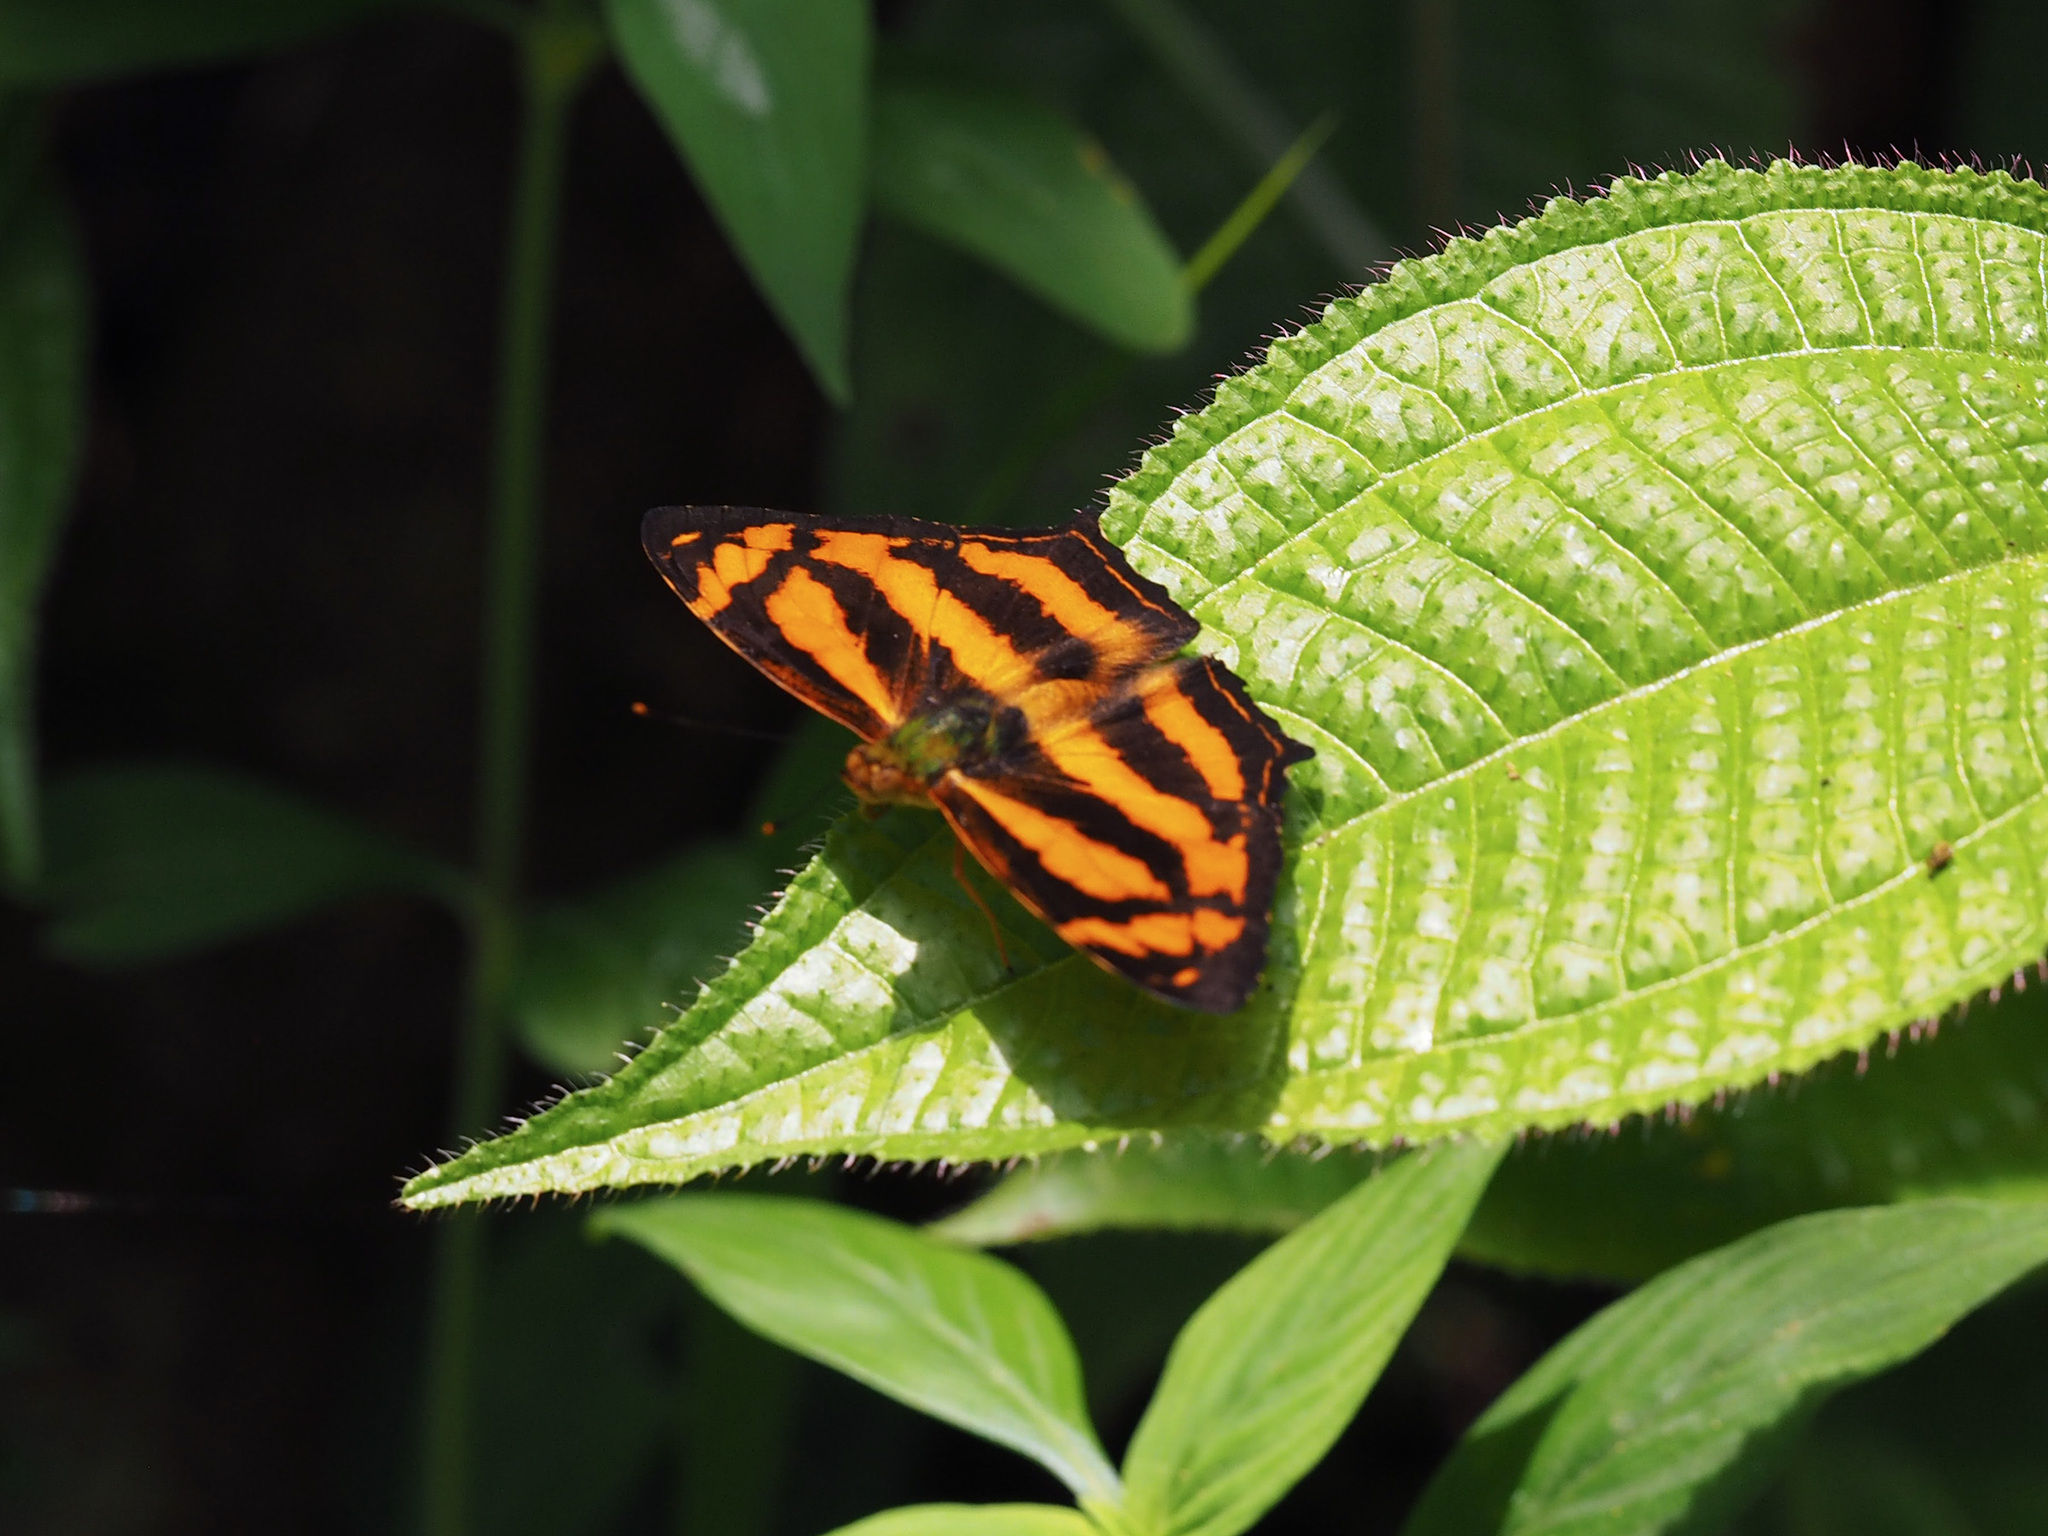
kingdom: Animalia
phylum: Arthropoda
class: Insecta
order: Lepidoptera
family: Nymphalidae
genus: Symbrenthia
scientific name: Symbrenthia hypselis
